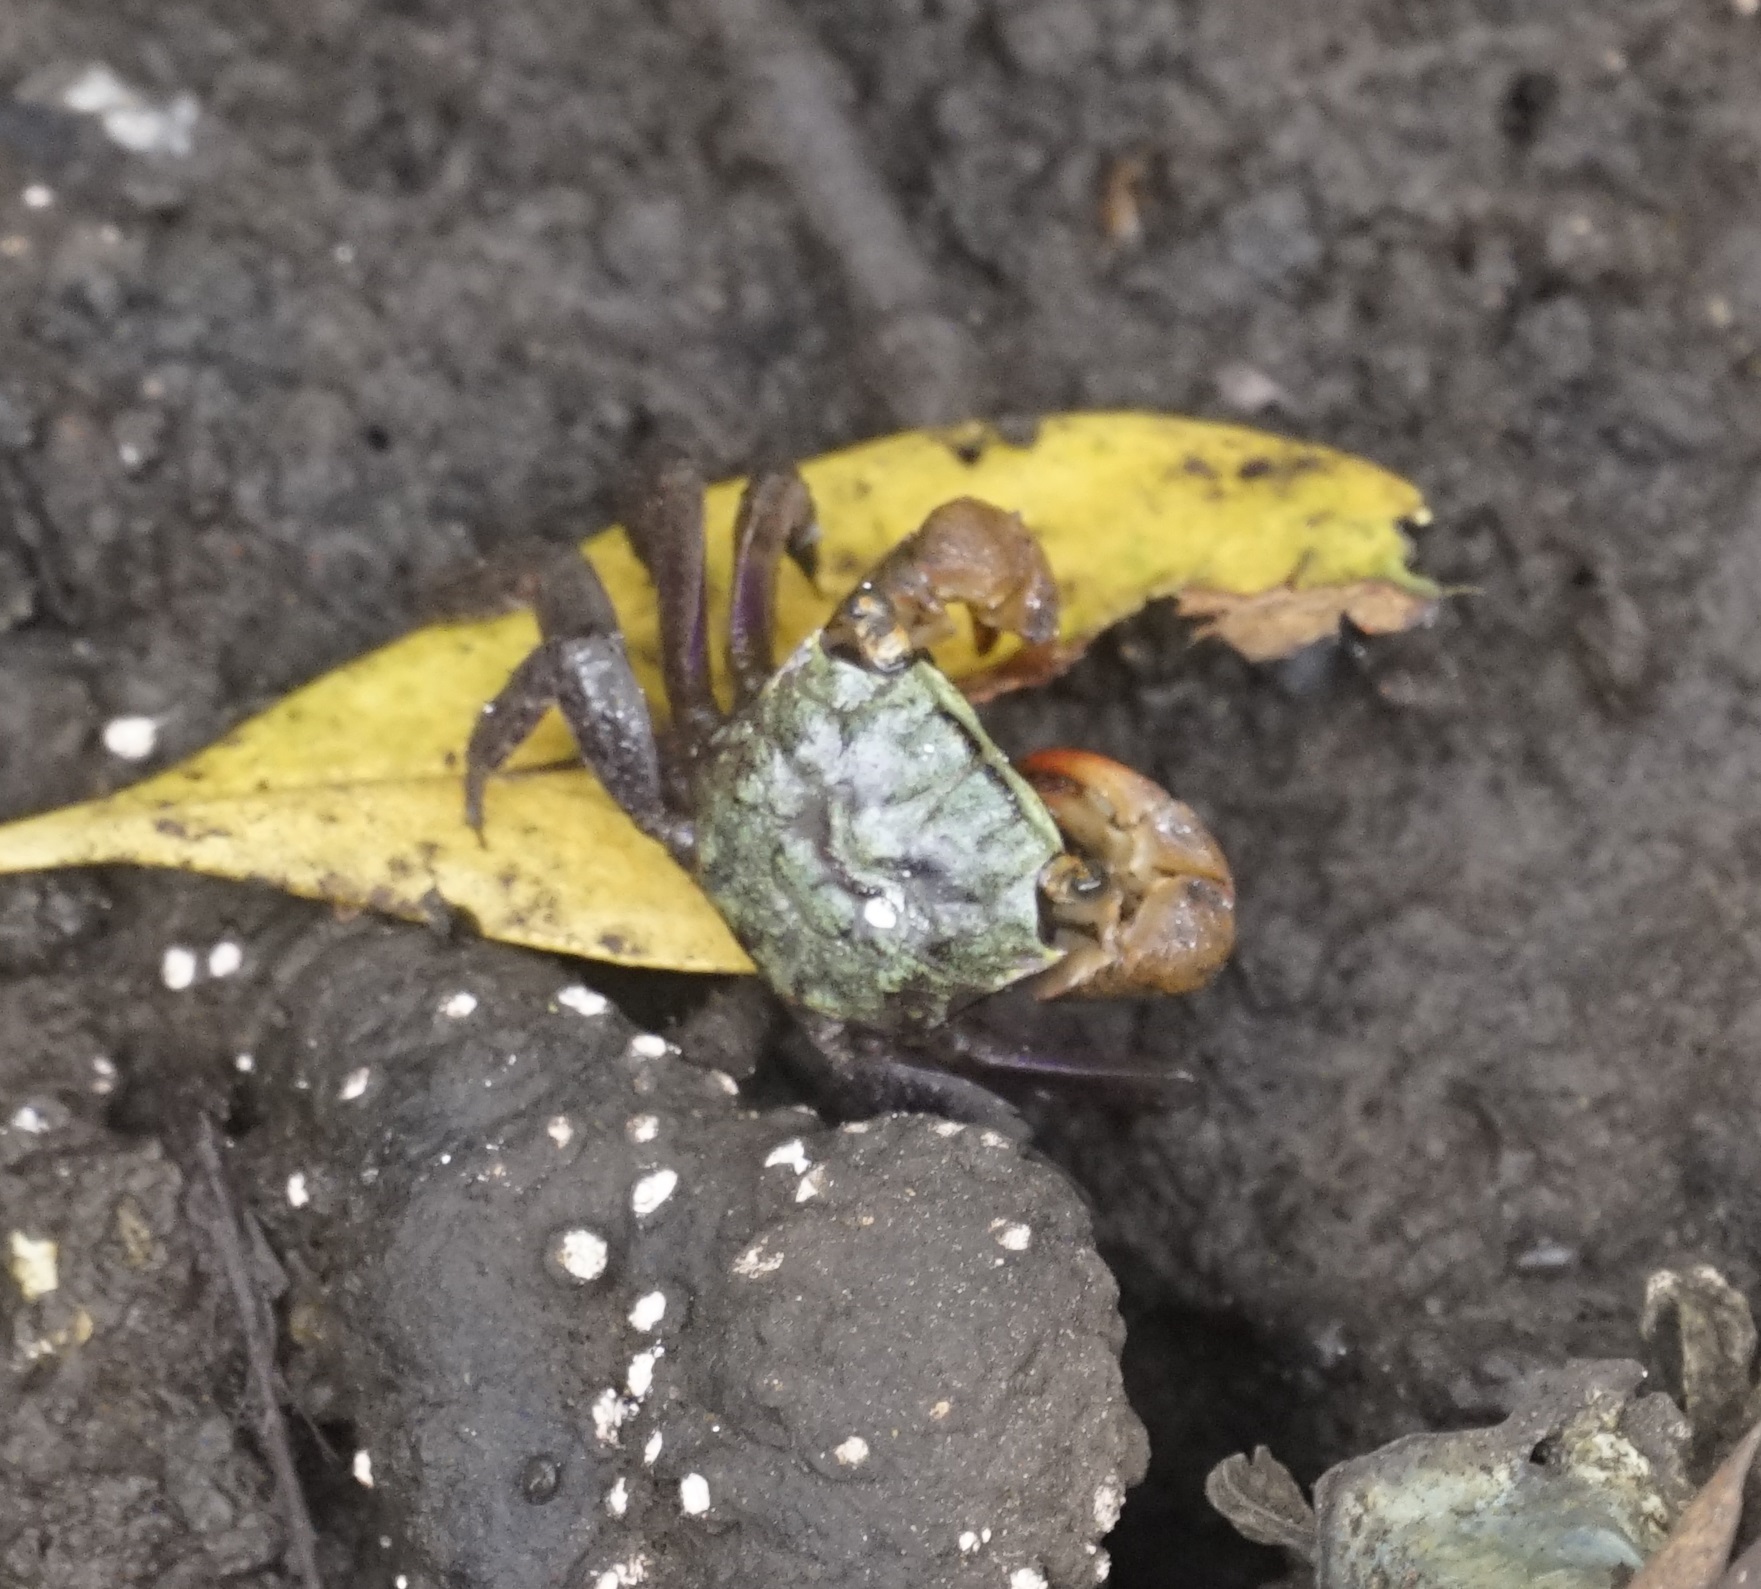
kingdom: Animalia
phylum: Arthropoda
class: Malacostraca
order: Decapoda
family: Sesarmidae
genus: Parasesarma
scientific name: Parasesarma erythodactylum
